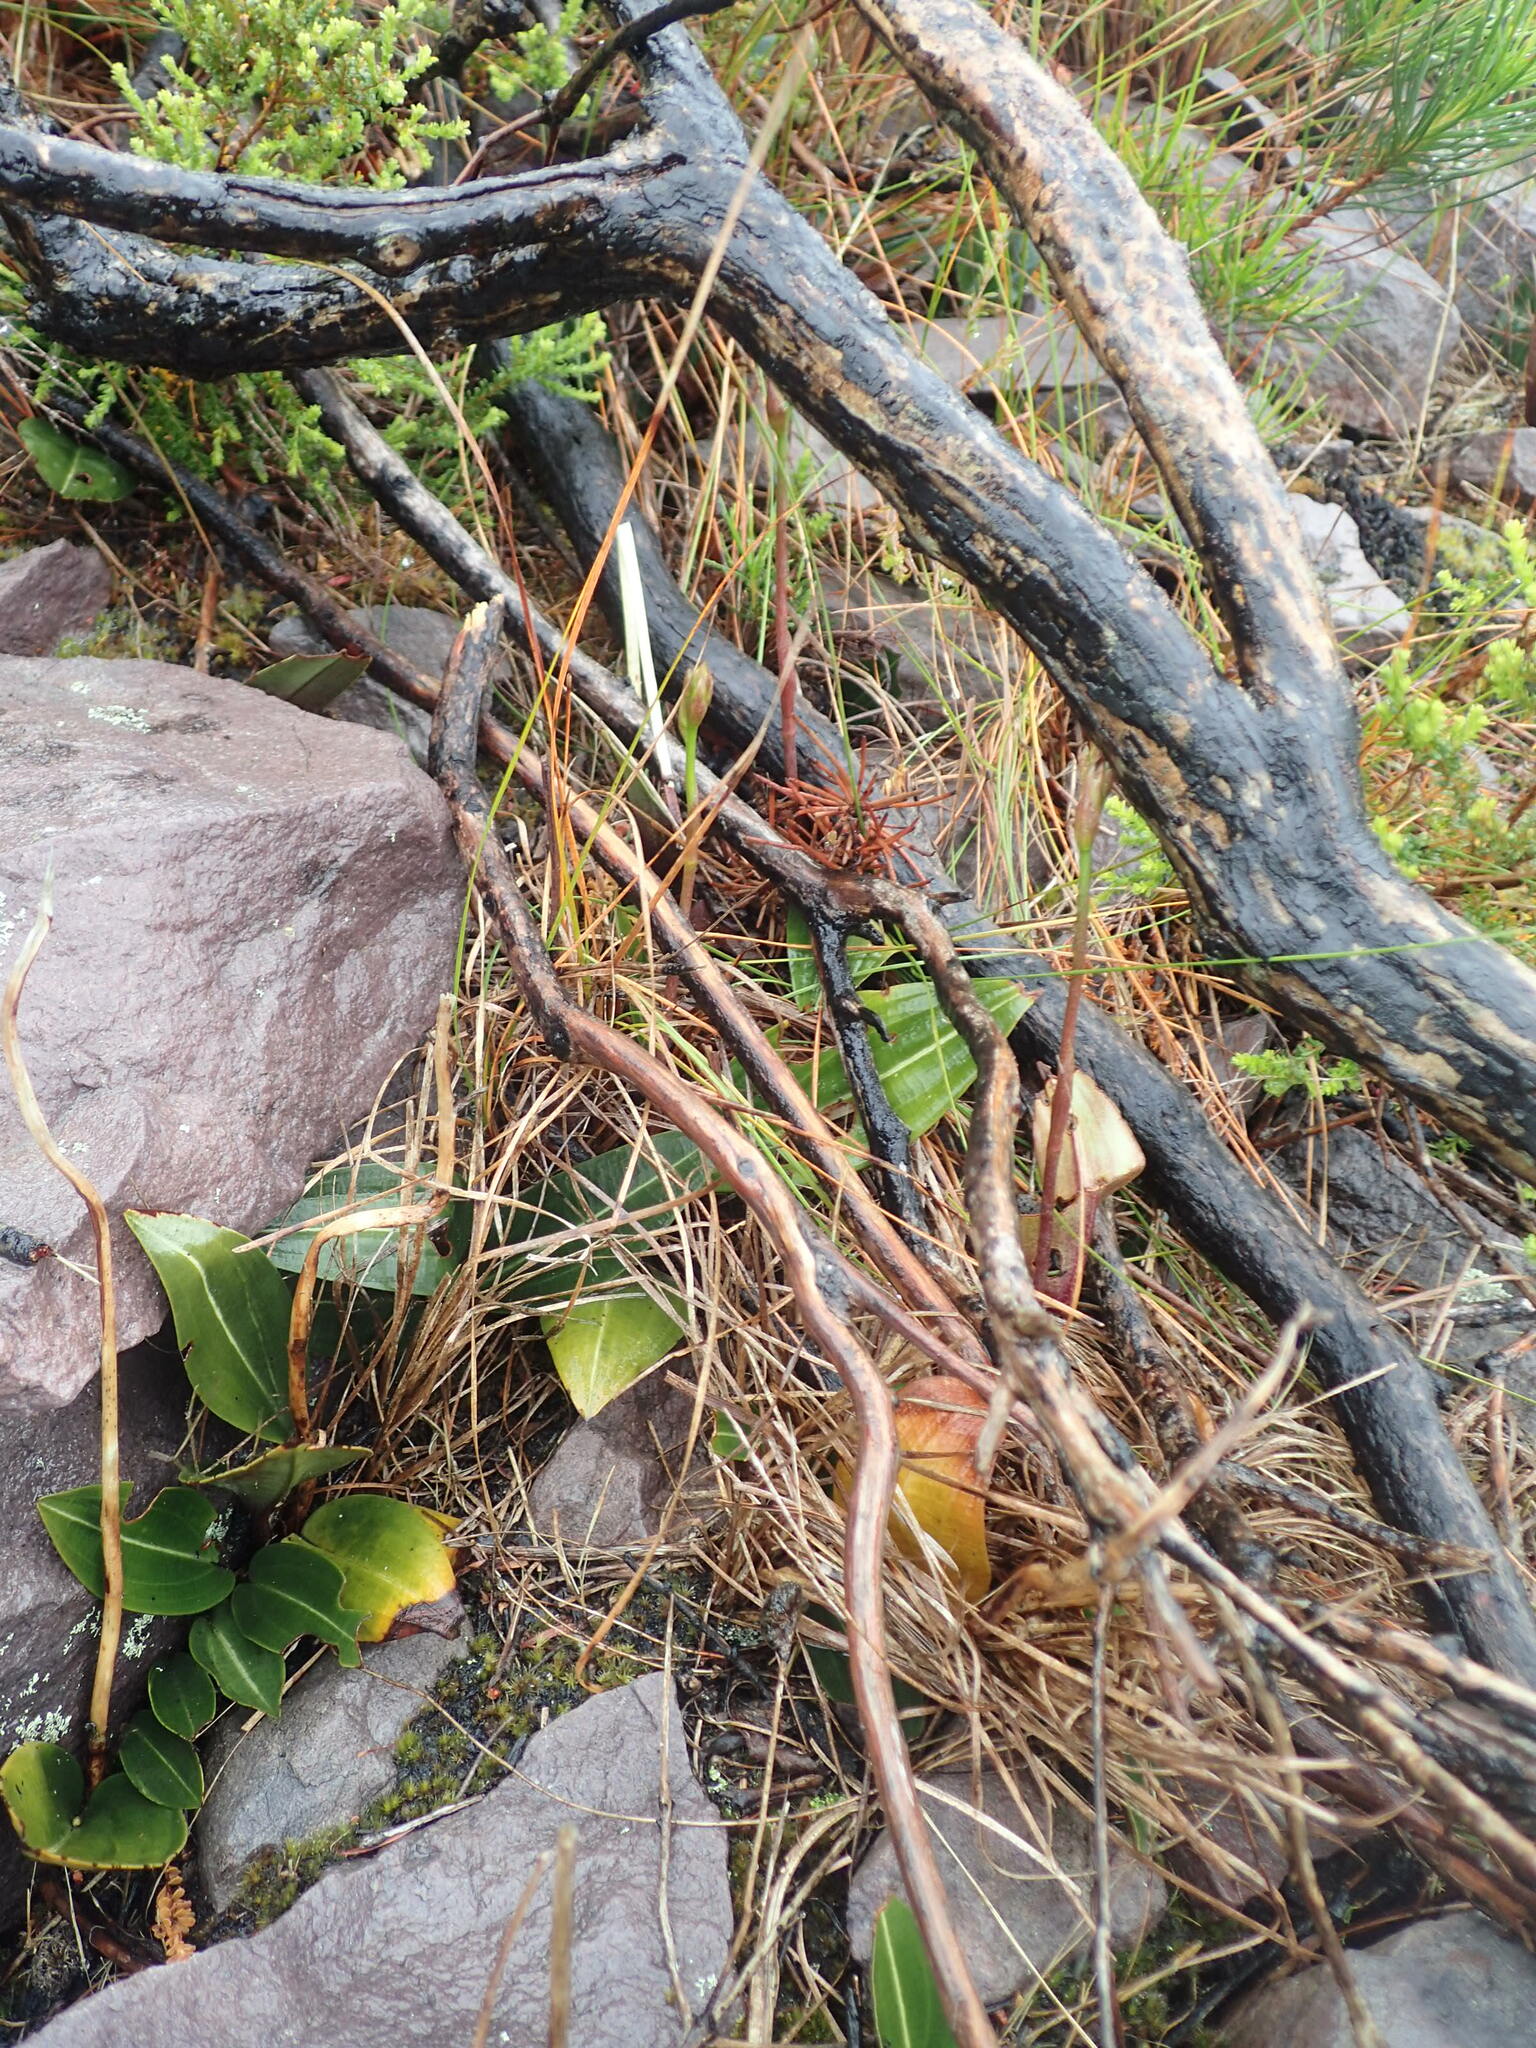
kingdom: Plantae
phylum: Tracheophyta
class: Liliopsida
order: Asparagales
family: Orchidaceae
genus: Cryptostylis
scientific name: Cryptostylis ovata
